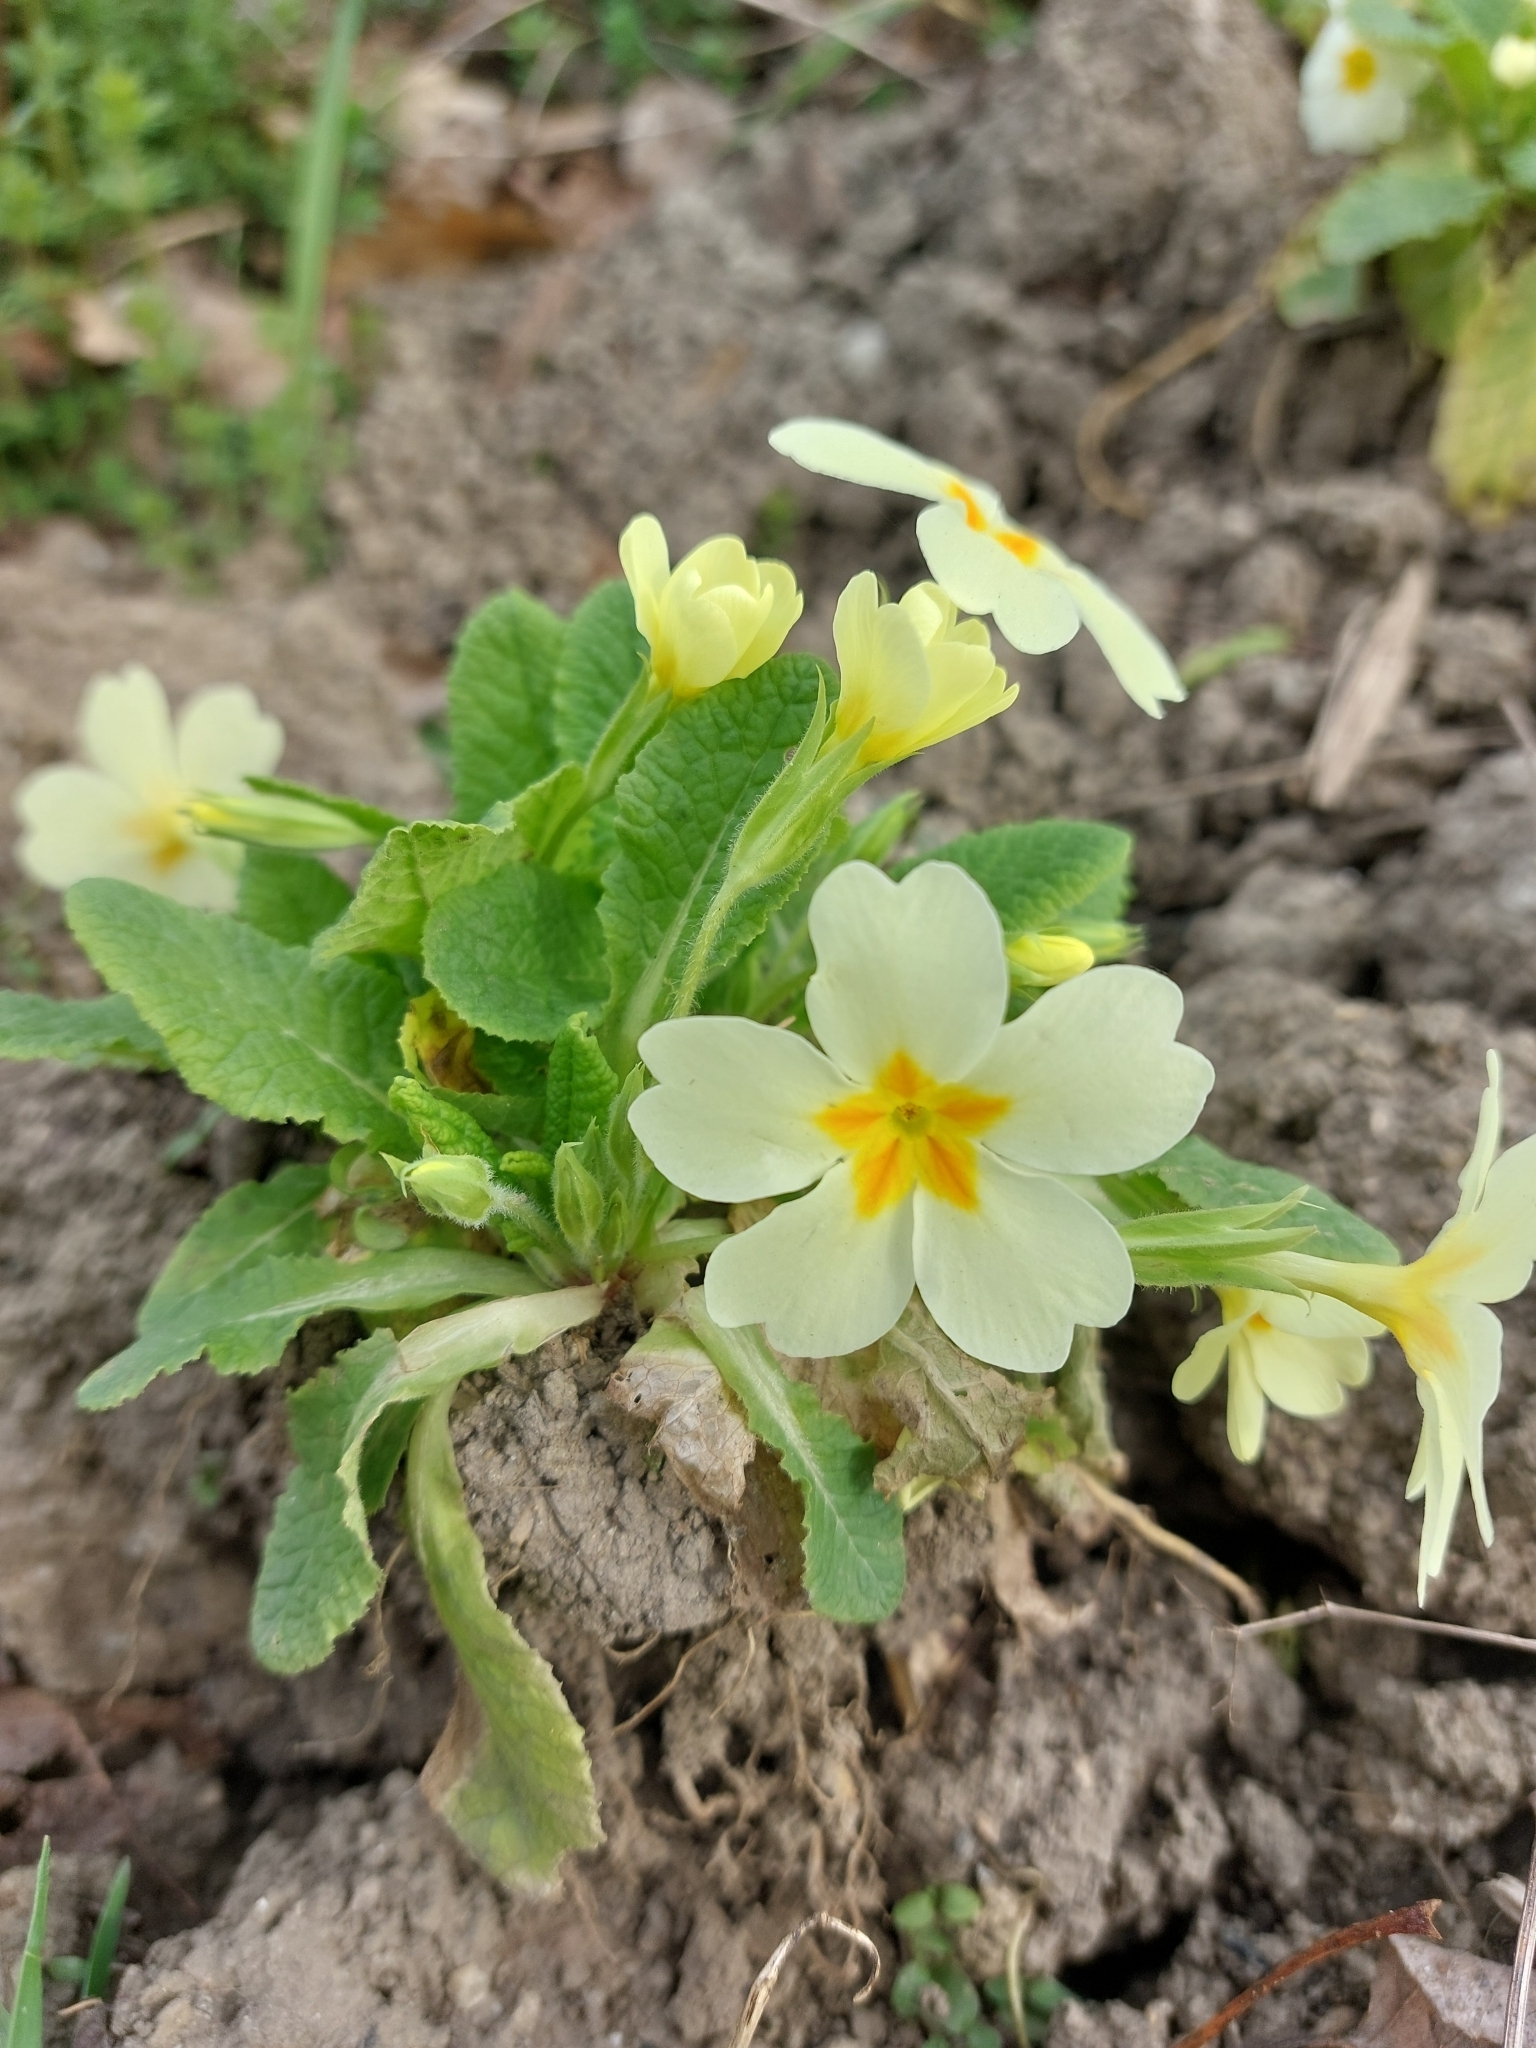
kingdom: Plantae
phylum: Tracheophyta
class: Magnoliopsida
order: Ericales
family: Primulaceae
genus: Primula
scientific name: Primula vulgaris
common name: Primrose
